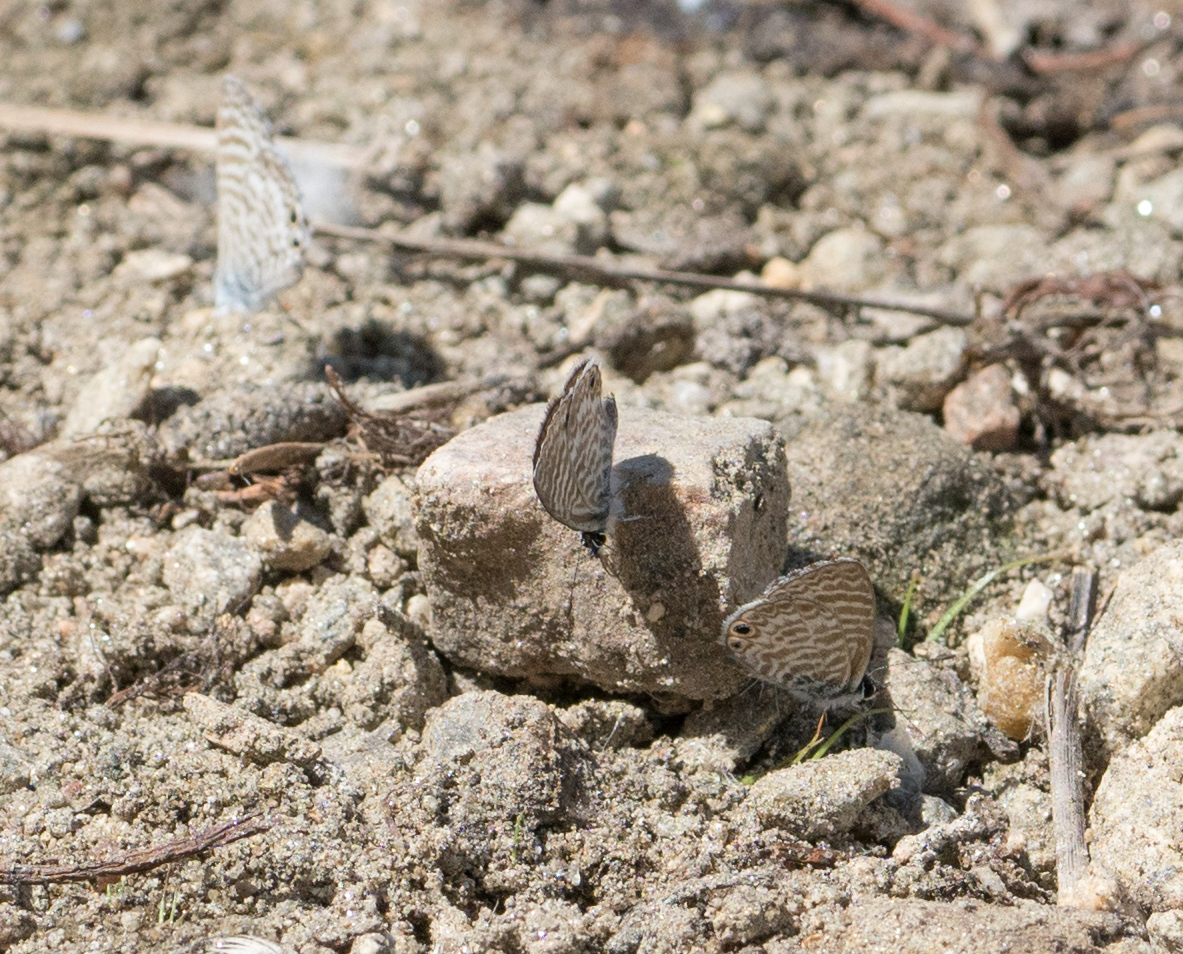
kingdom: Animalia
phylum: Arthropoda
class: Insecta
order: Lepidoptera
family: Lycaenidae
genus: Leptotes
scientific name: Leptotes marina
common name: Marine blue
